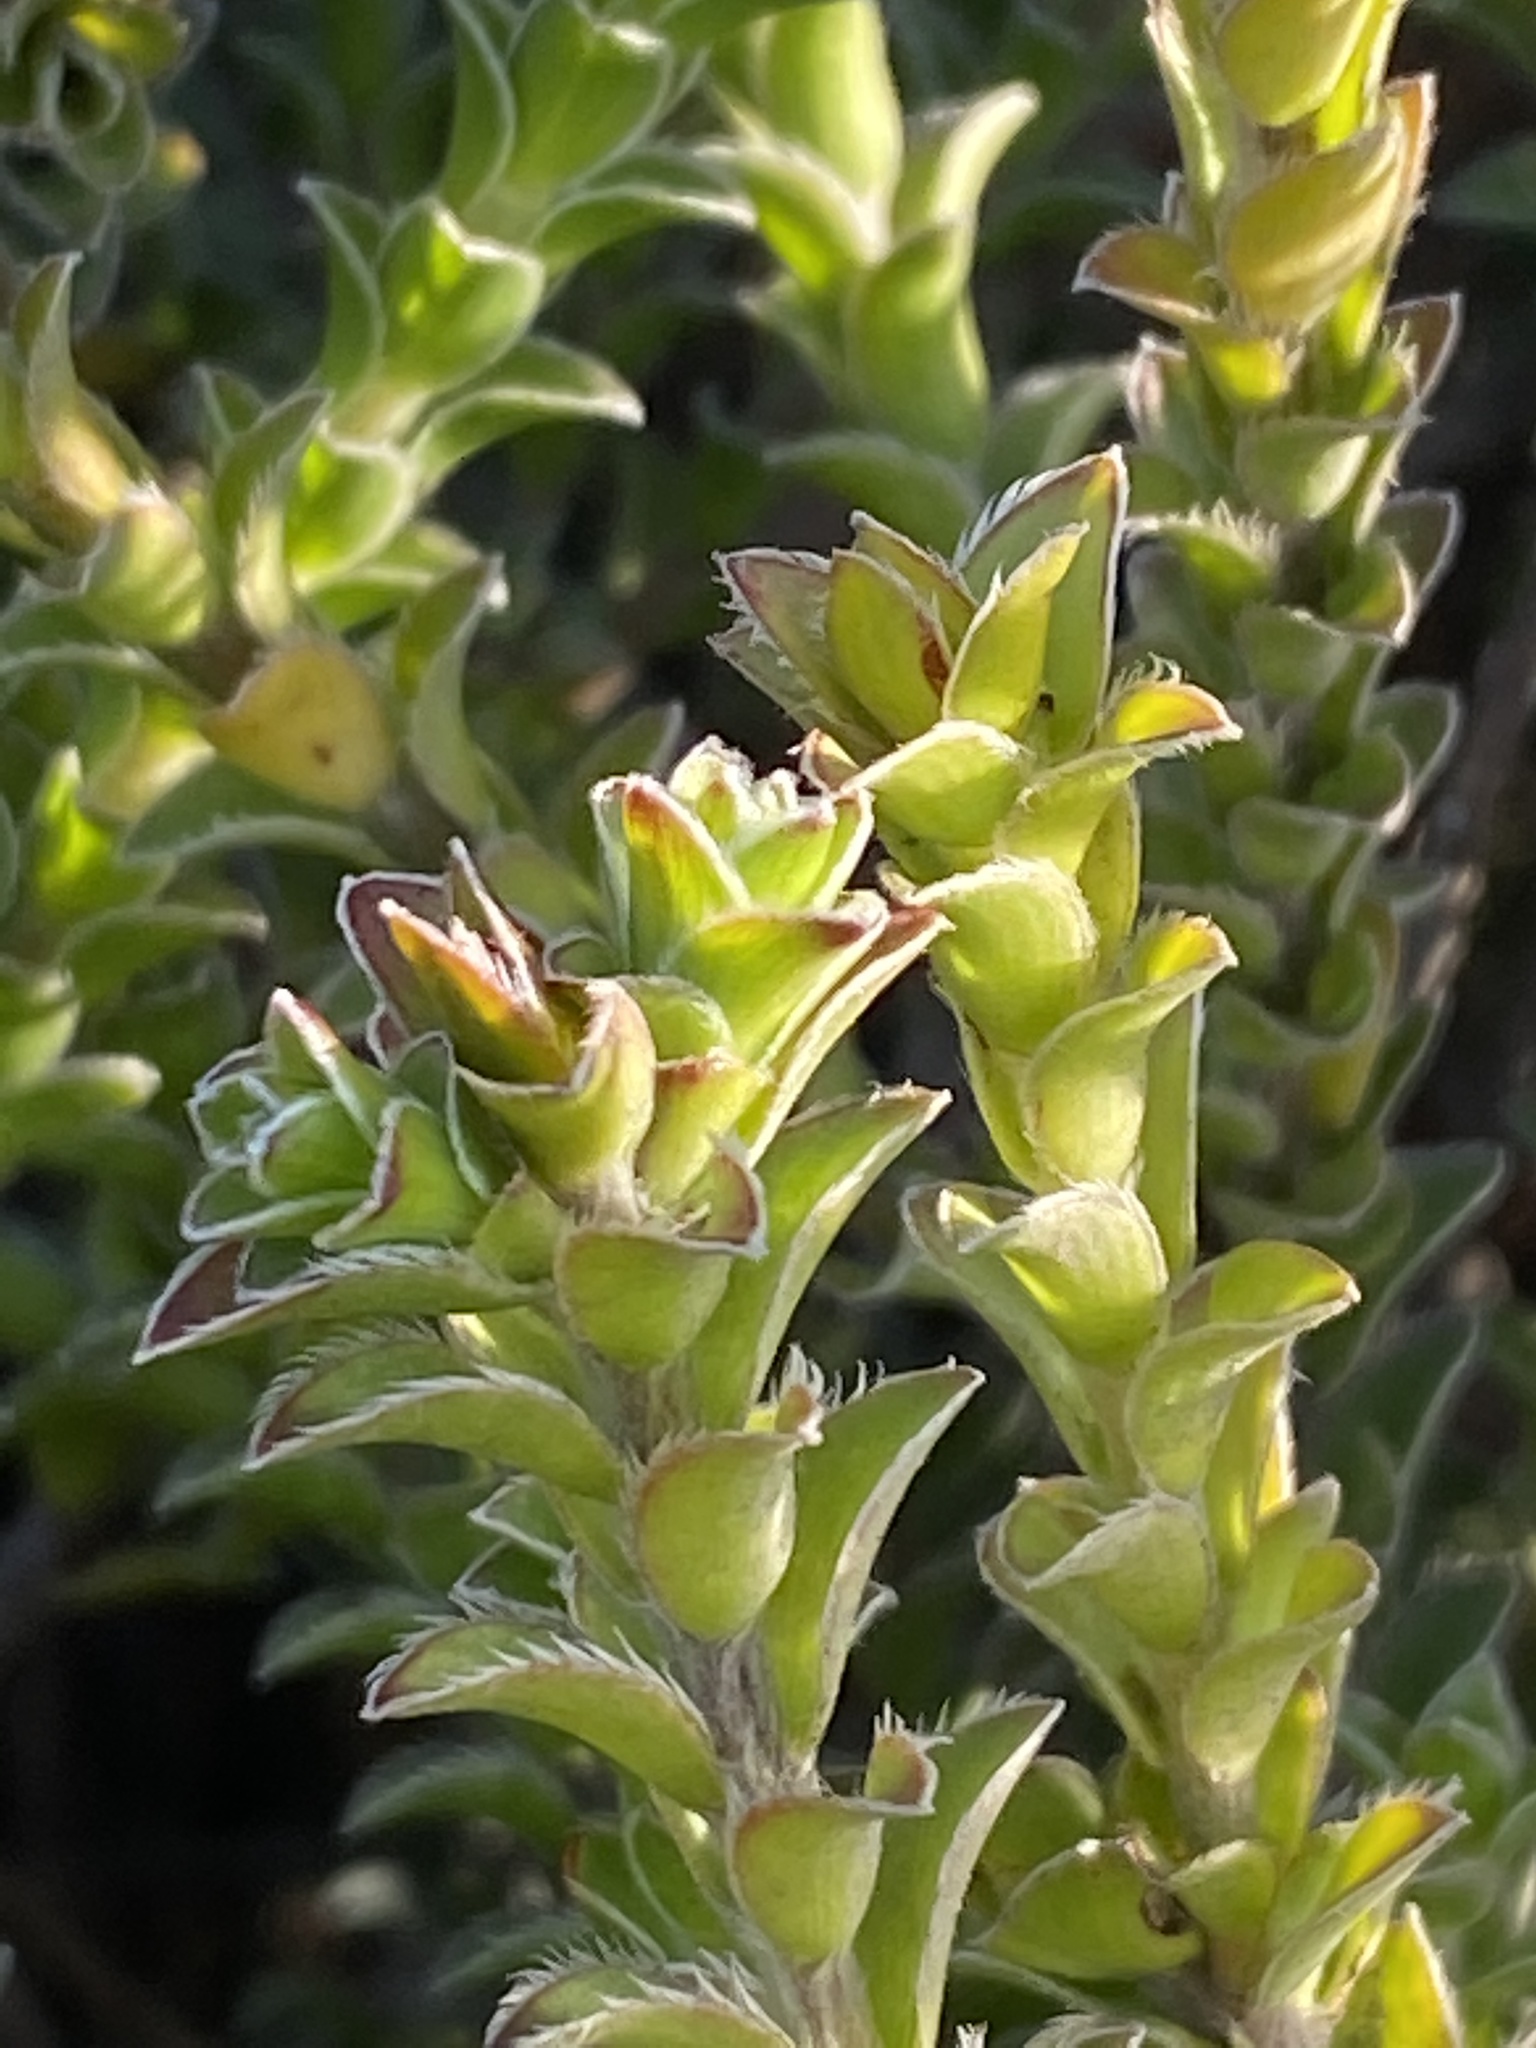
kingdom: Plantae
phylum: Tracheophyta
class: Magnoliopsida
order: Malvales
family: Thymelaeaceae
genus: Struthiola
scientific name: Struthiola argentea
